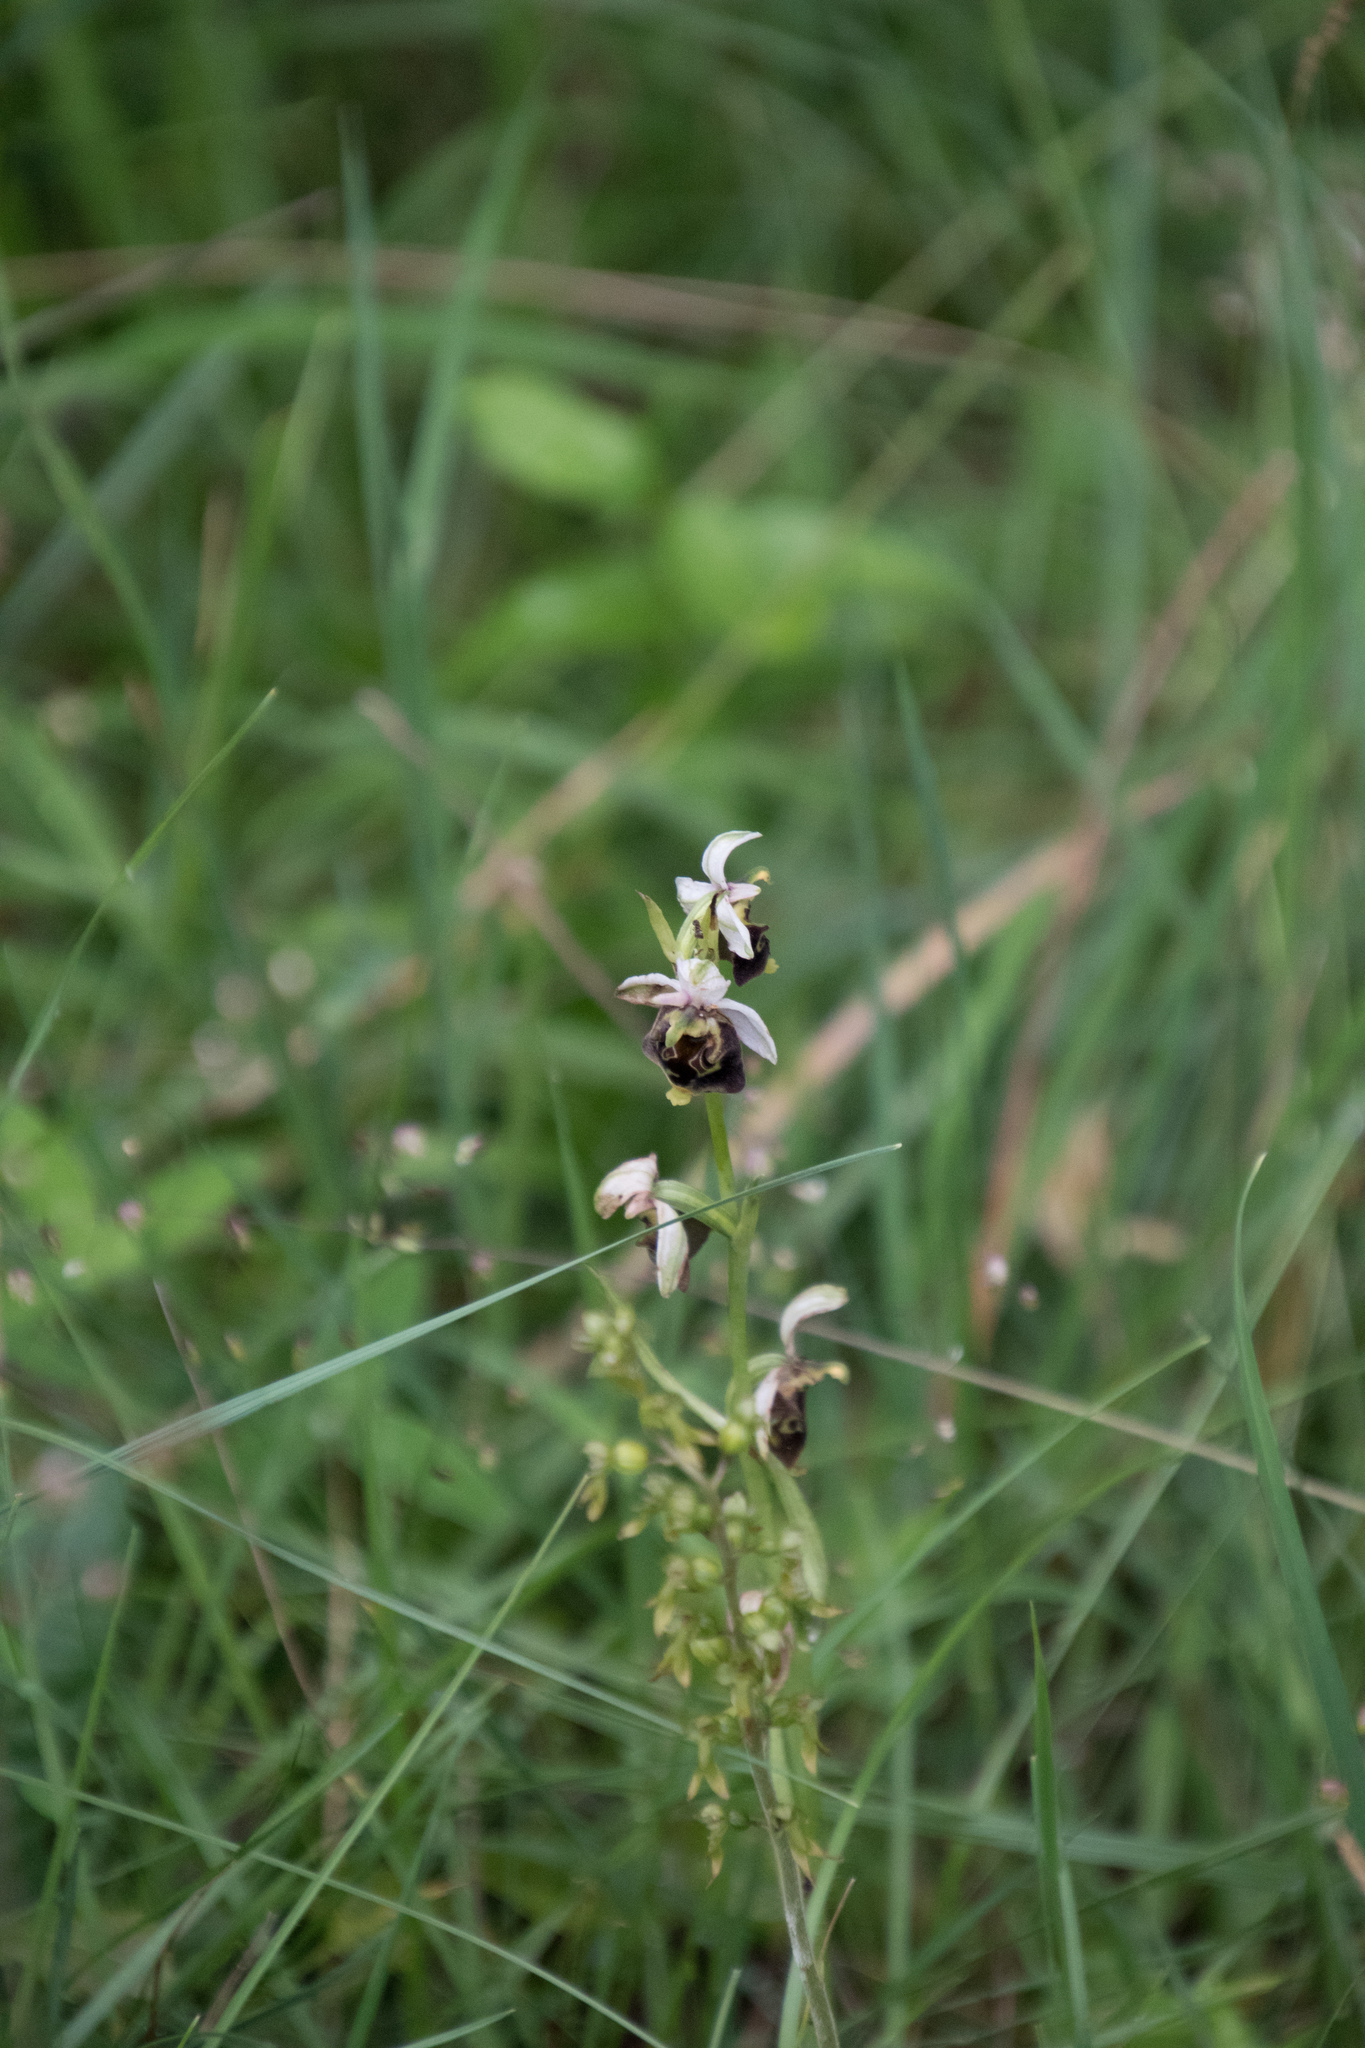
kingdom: Plantae
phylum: Tracheophyta
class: Liliopsida
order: Asparagales
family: Orchidaceae
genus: Ophrys
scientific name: Ophrys holosericea
